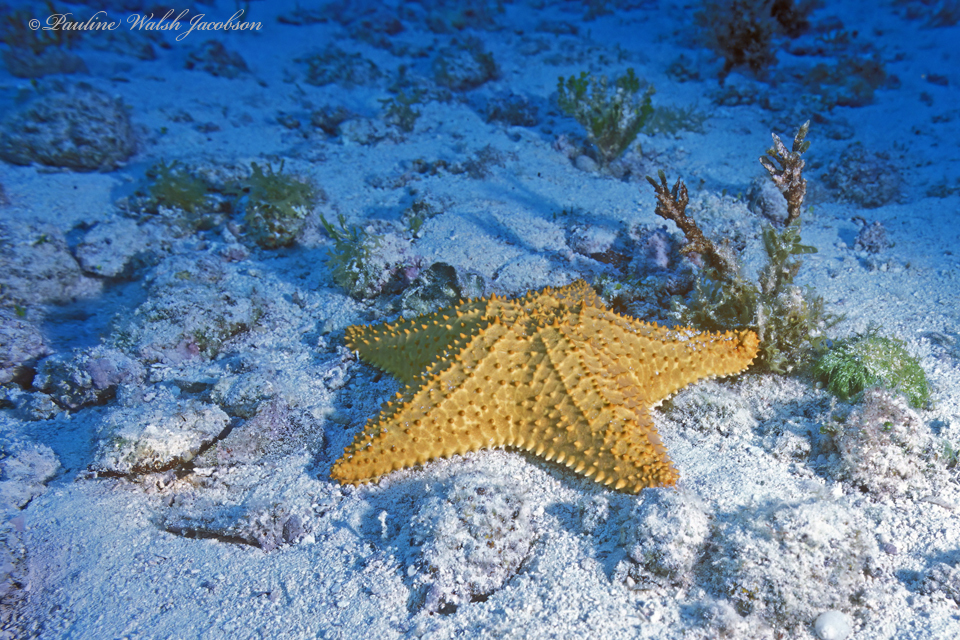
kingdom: Animalia
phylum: Echinodermata
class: Asteroidea
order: Valvatida
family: Oreasteridae
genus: Oreaster
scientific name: Oreaster reticulatus
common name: Cushion sea star
